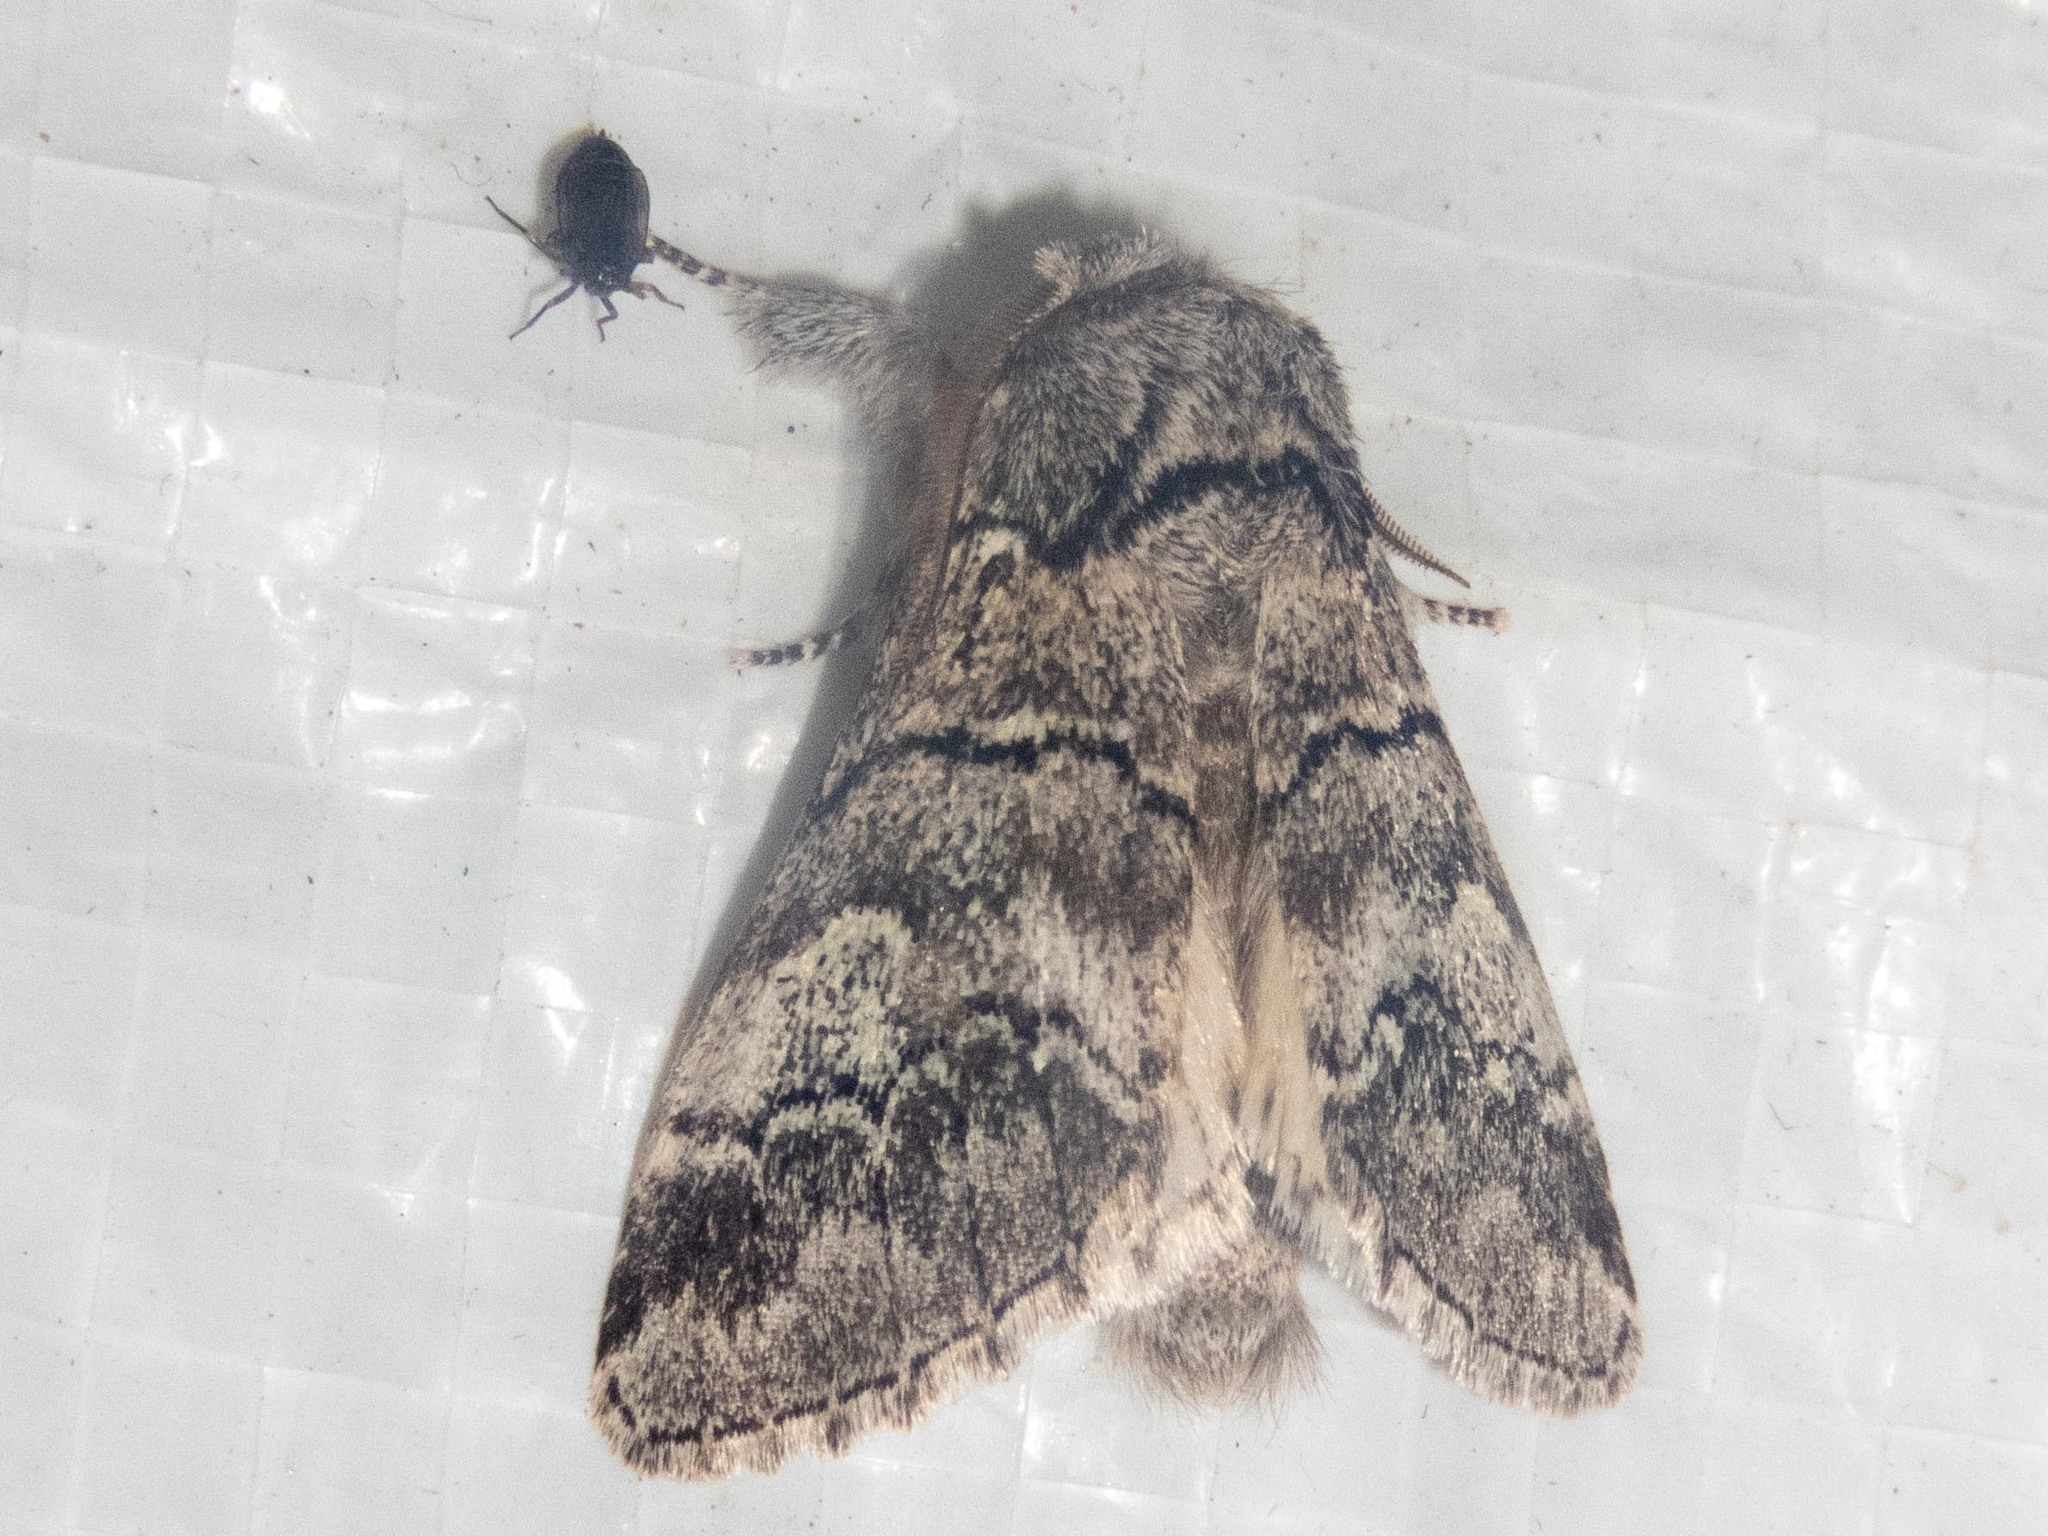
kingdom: Animalia
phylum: Arthropoda
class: Insecta
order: Lepidoptera
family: Notodontidae
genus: Drymonia
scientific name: Drymonia querna
